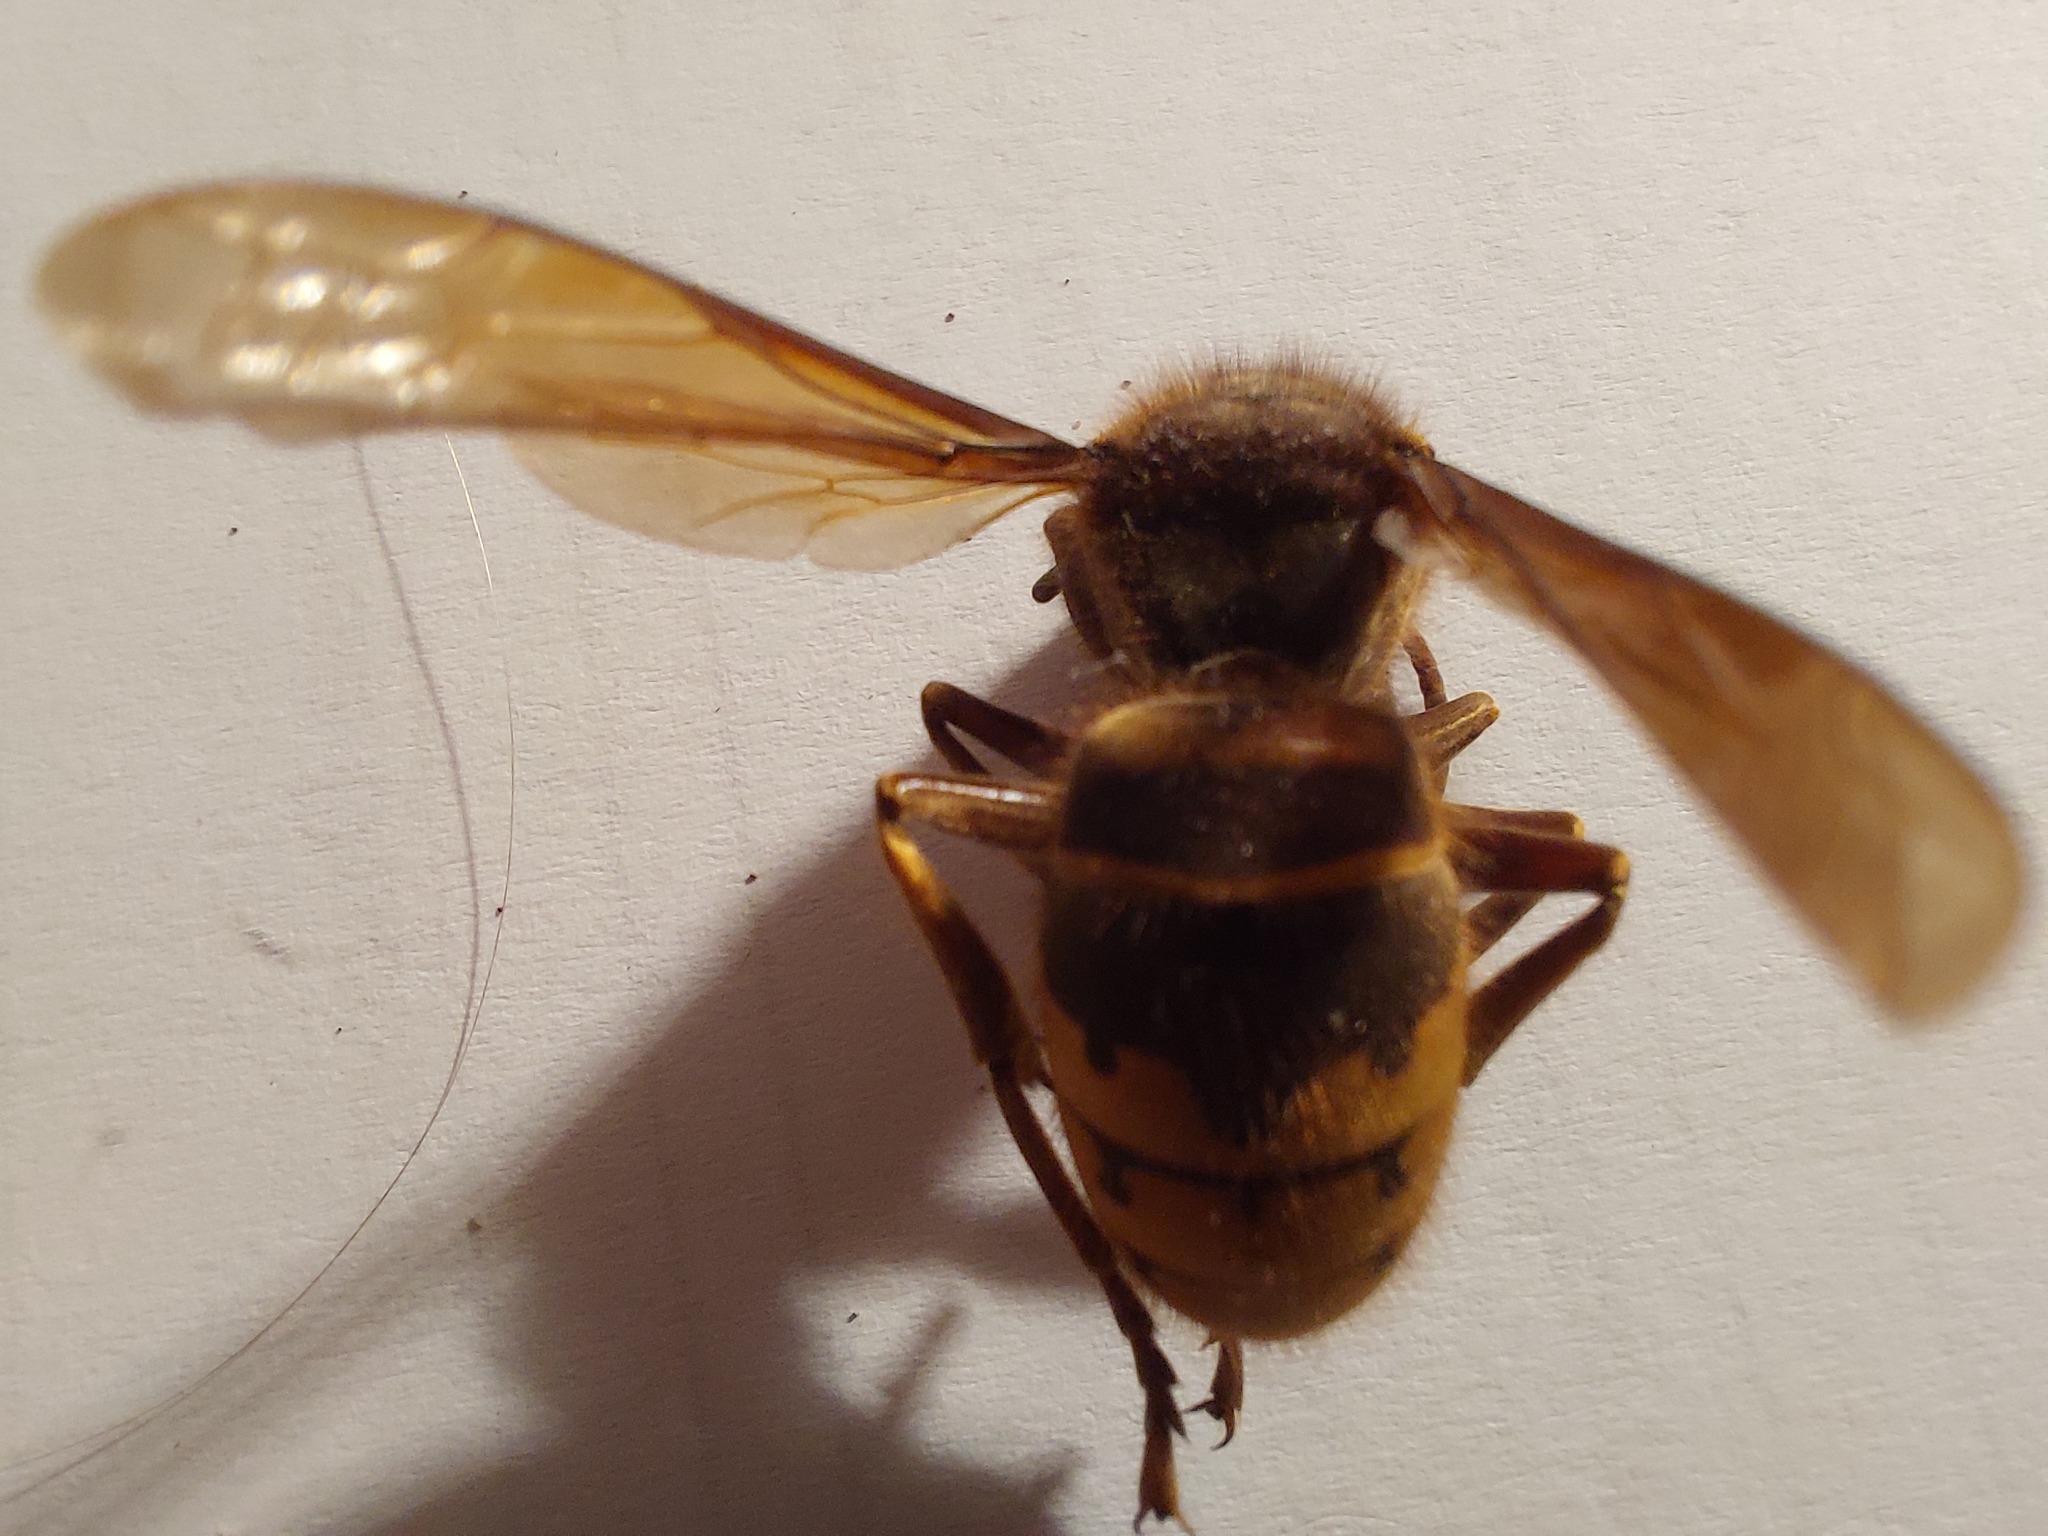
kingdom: Animalia
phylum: Arthropoda
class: Insecta
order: Hymenoptera
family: Vespidae
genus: Vespa
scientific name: Vespa crabro
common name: Hornet
